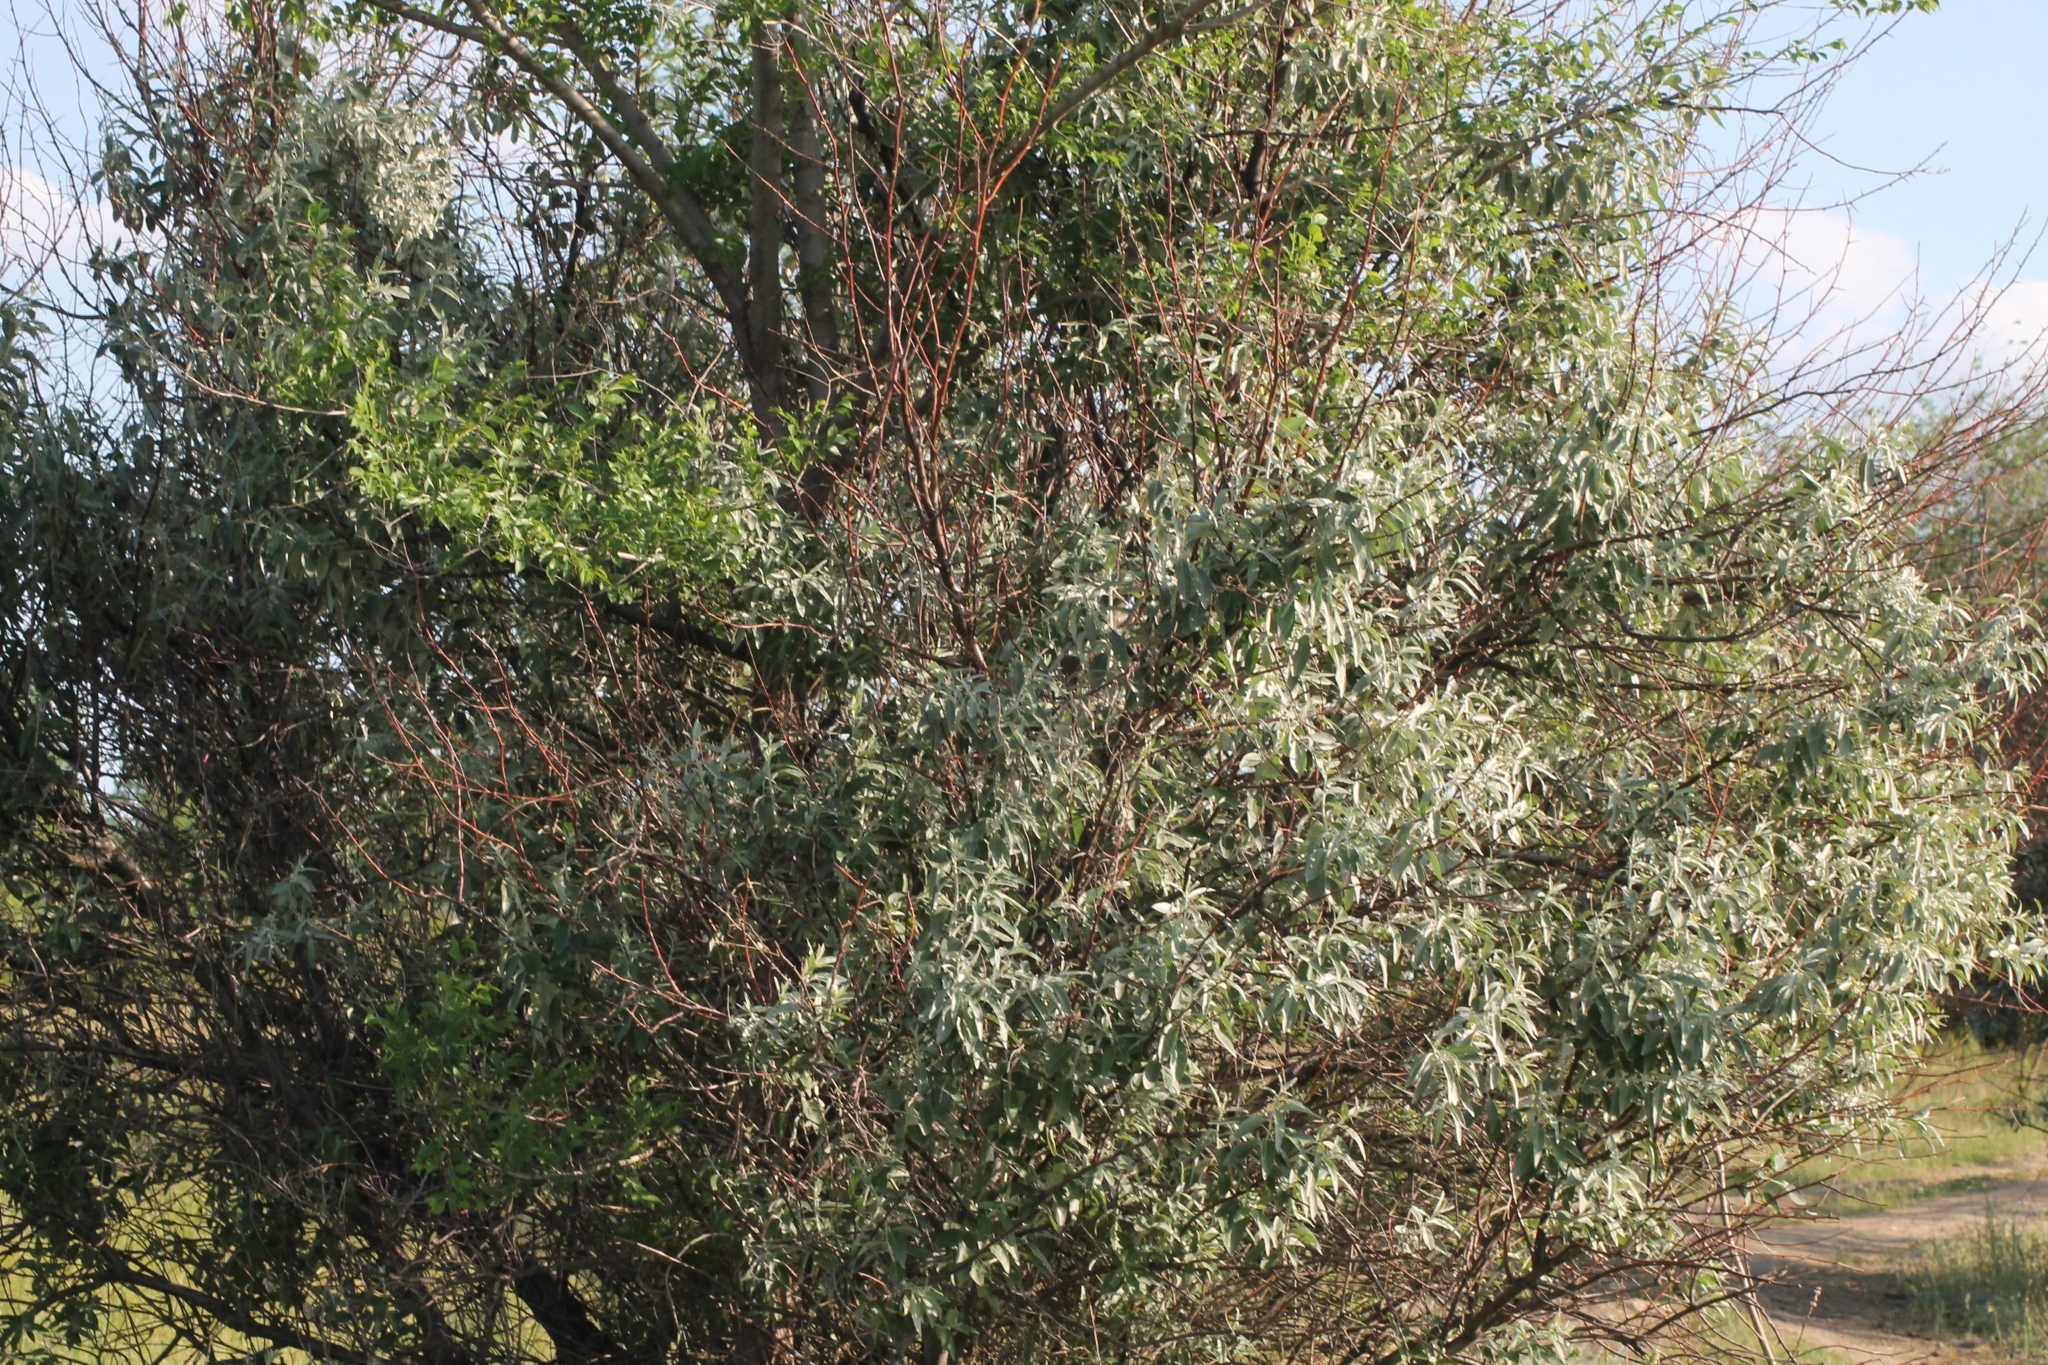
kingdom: Plantae
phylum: Tracheophyta
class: Magnoliopsida
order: Rosales
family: Elaeagnaceae
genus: Elaeagnus
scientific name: Elaeagnus angustifolia
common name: Russian olive
